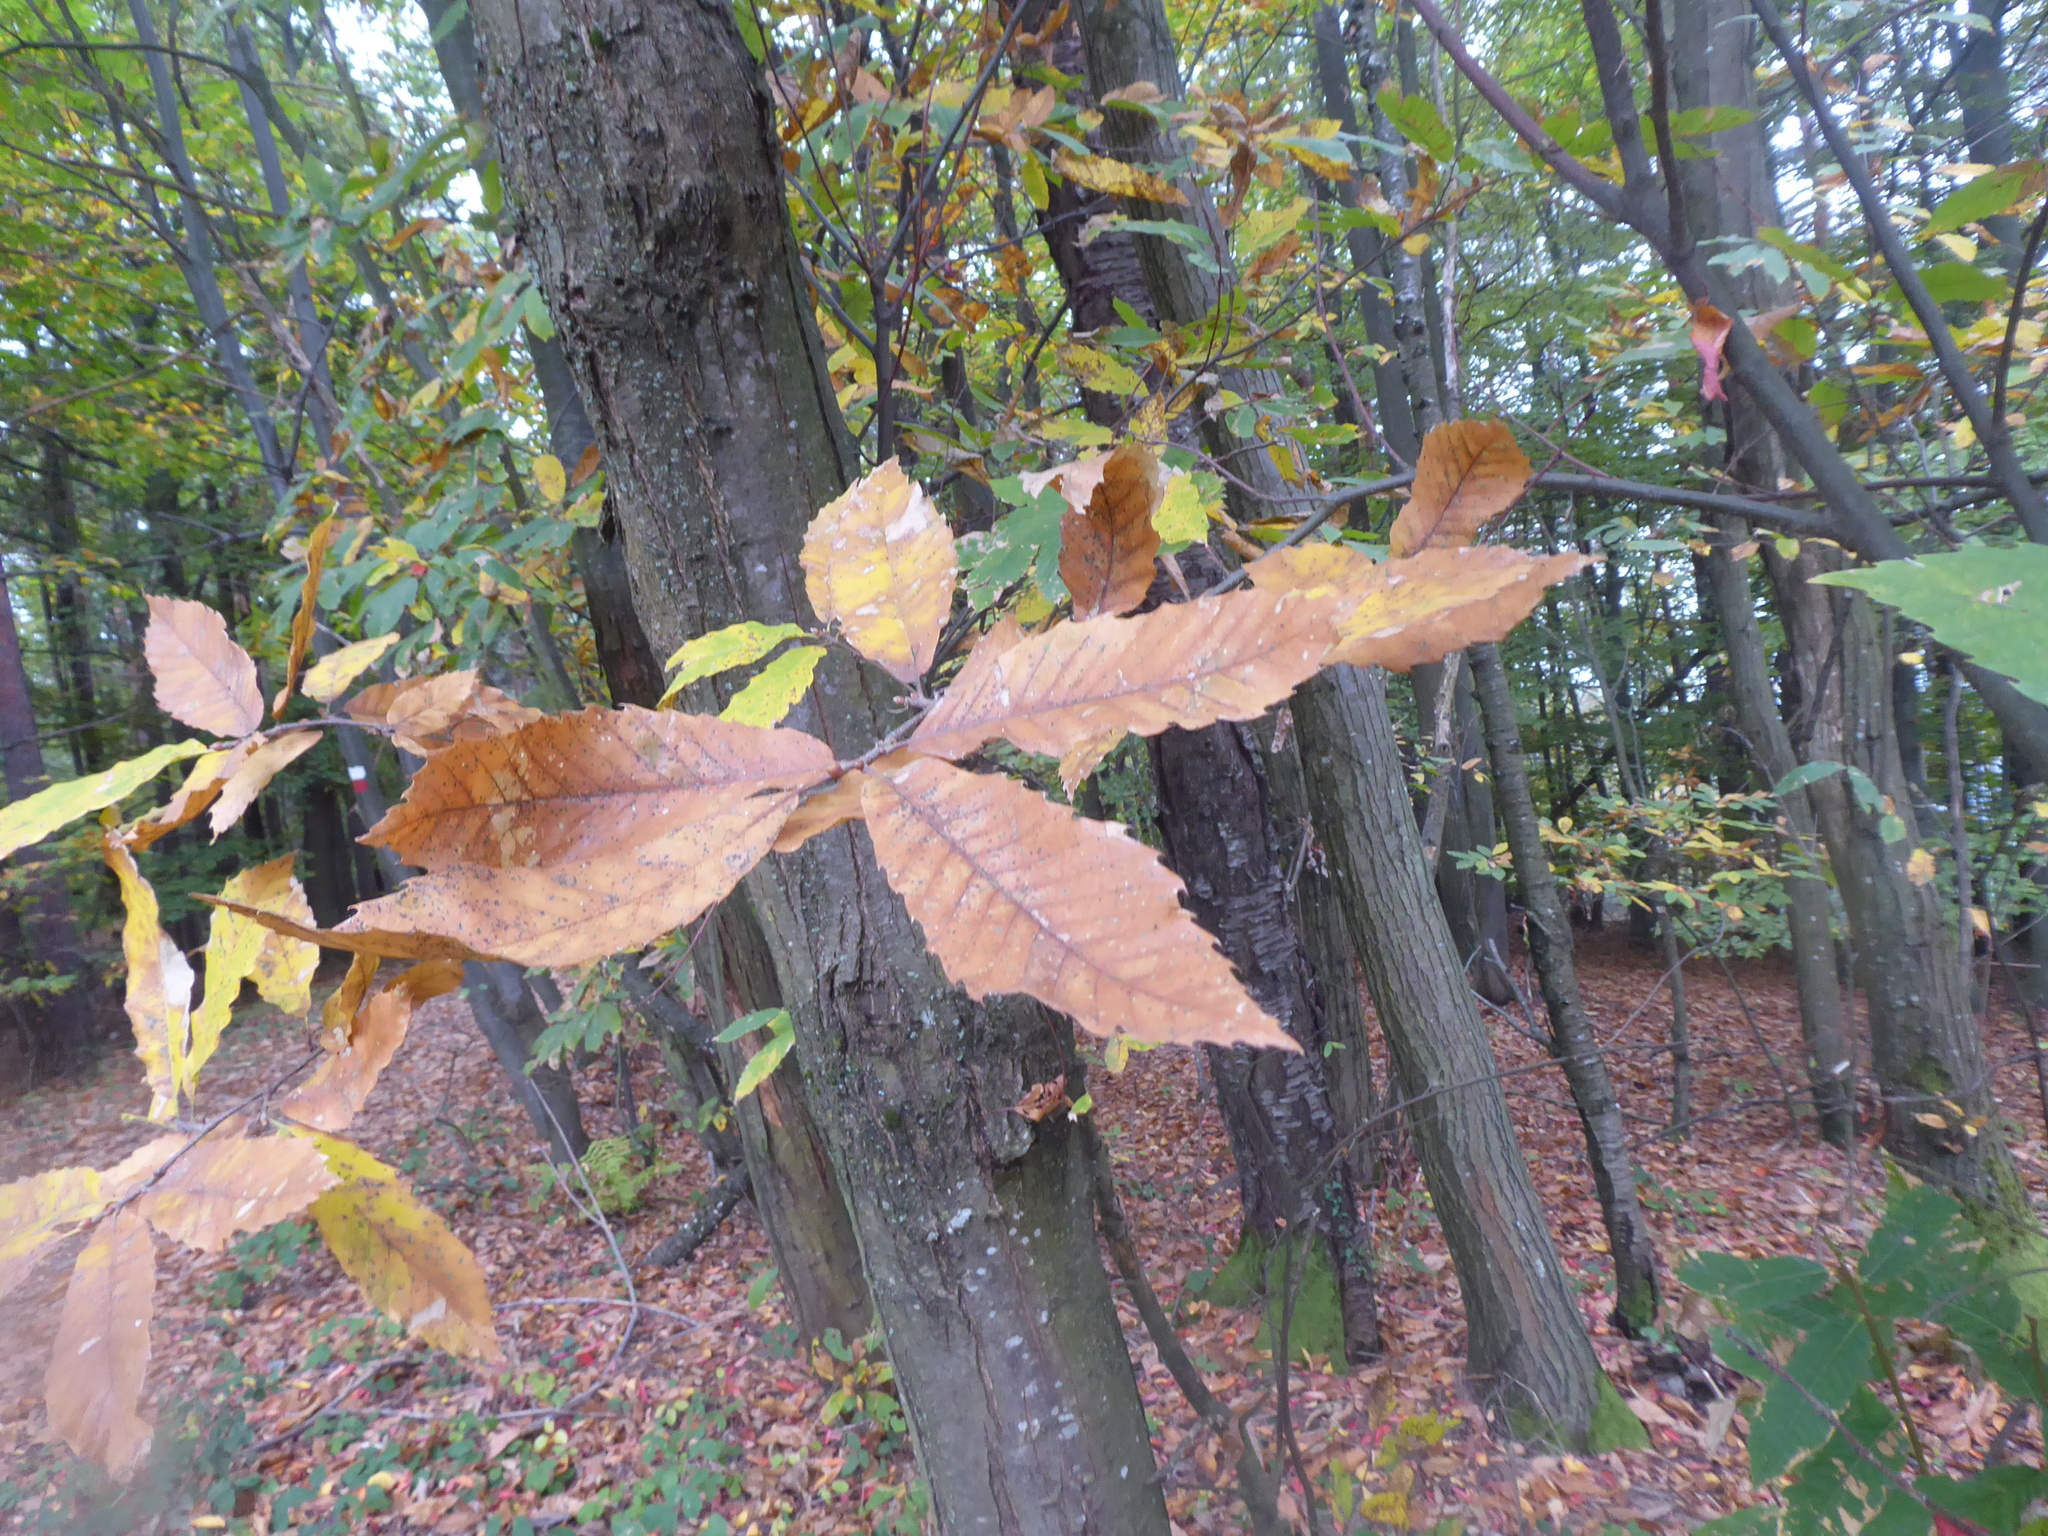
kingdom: Plantae
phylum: Tracheophyta
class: Magnoliopsida
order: Fagales
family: Fagaceae
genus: Castanea
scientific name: Castanea sativa
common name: Sweet chestnut
